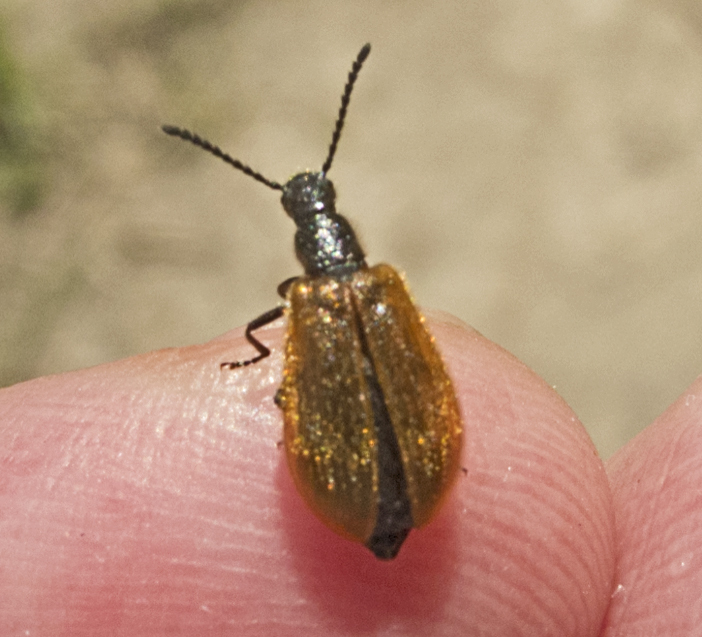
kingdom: Animalia
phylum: Arthropoda
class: Insecta
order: Coleoptera
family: Tenebrionidae
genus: Lagria
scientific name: Lagria hirta
